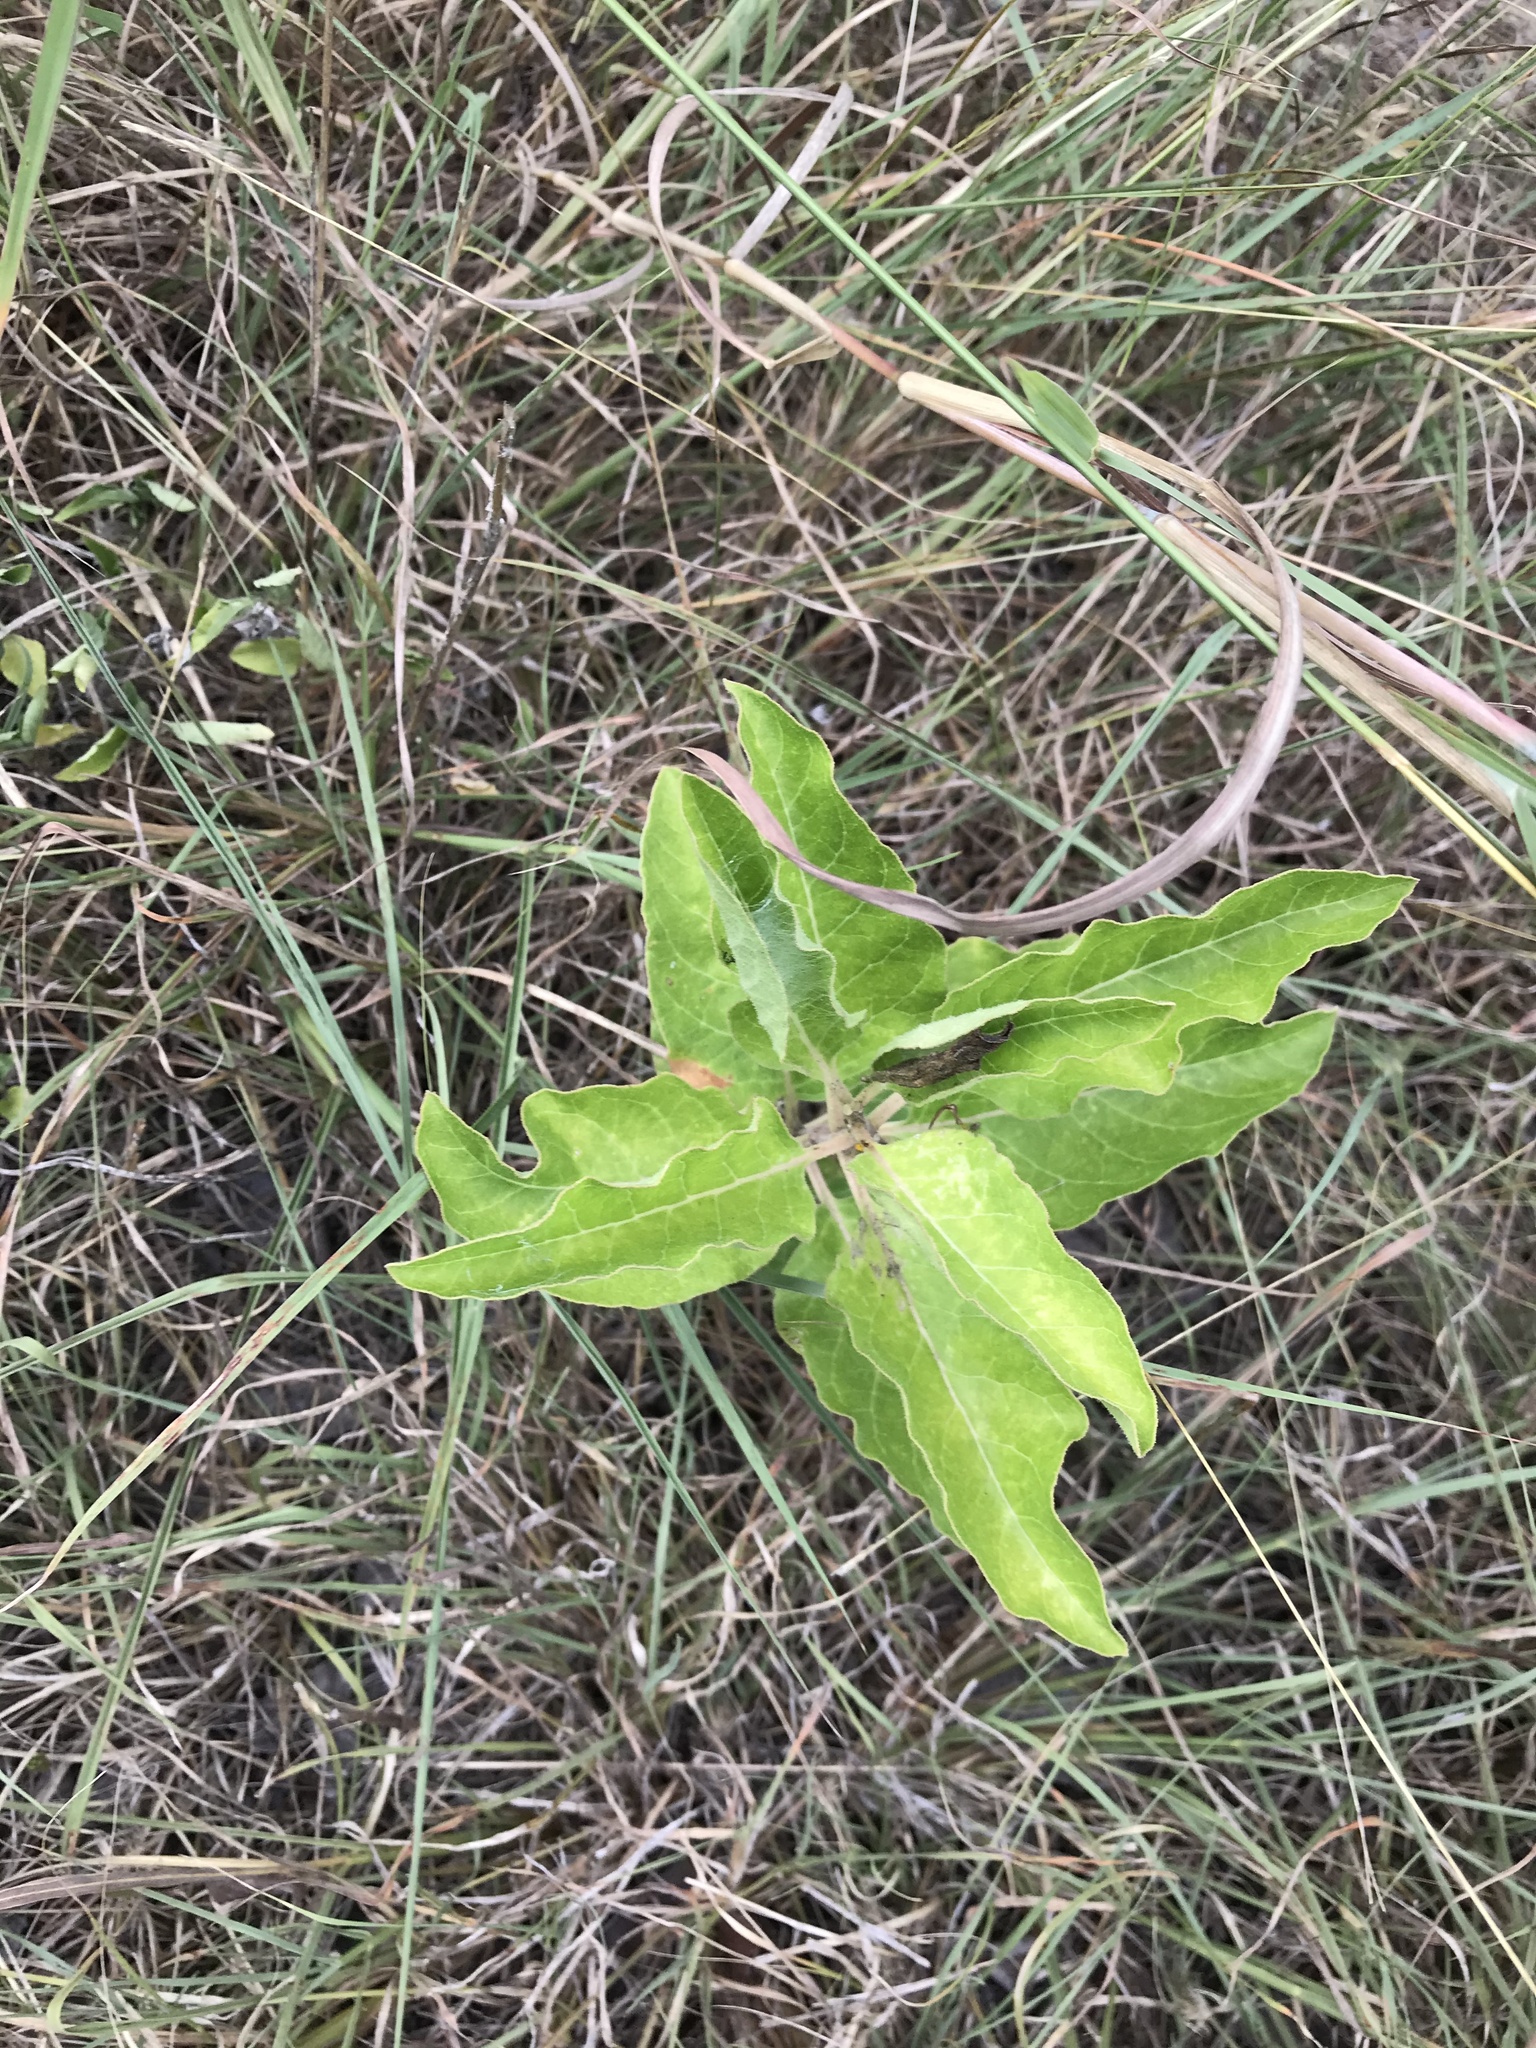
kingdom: Plantae
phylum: Tracheophyta
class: Magnoliopsida
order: Gentianales
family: Apocynaceae
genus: Asclepias
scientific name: Asclepias oenotheroides
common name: Zizotes milkweed
